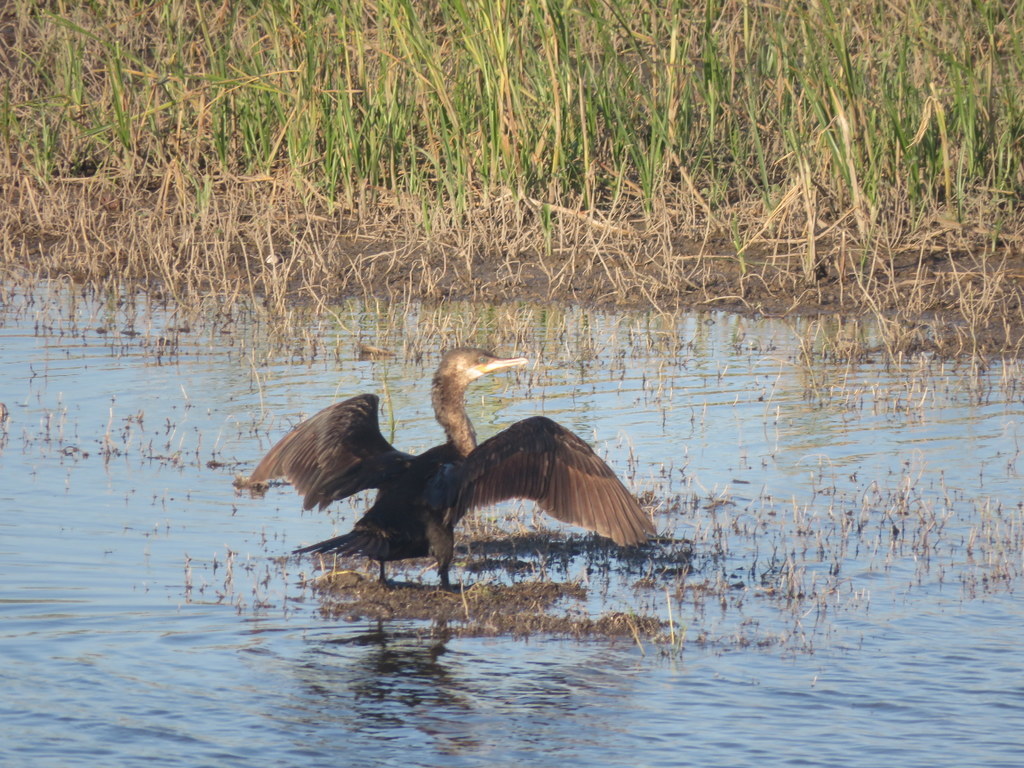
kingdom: Animalia
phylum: Chordata
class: Aves
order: Suliformes
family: Phalacrocoracidae
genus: Phalacrocorax
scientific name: Phalacrocorax brasilianus
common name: Neotropic cormorant
